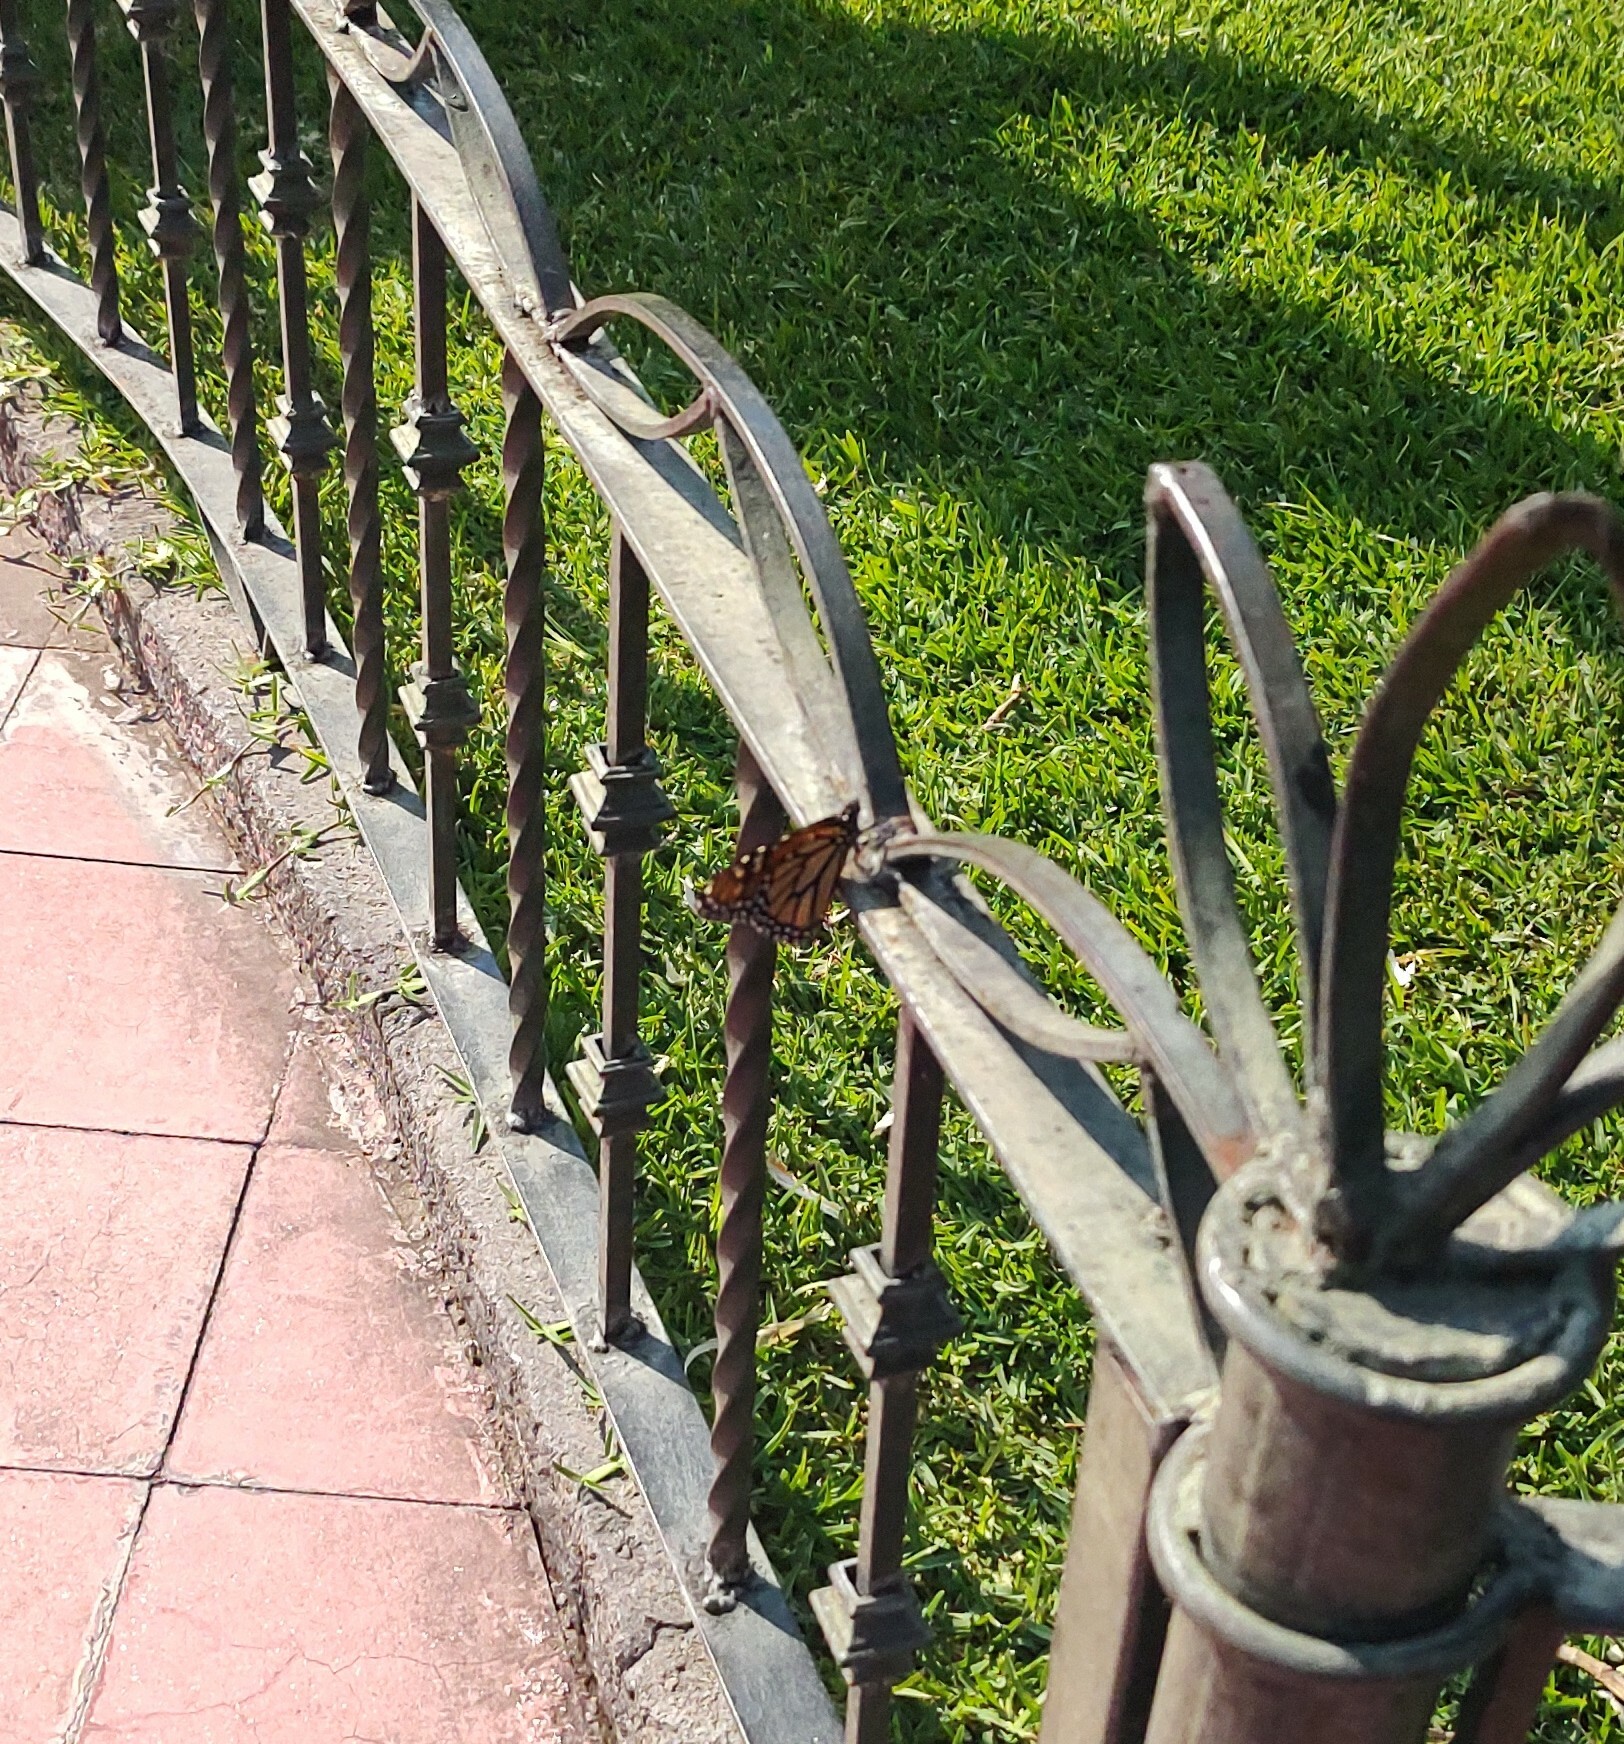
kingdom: Animalia
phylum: Arthropoda
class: Insecta
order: Lepidoptera
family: Nymphalidae
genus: Danaus
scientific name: Danaus plexippus
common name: Monarch
